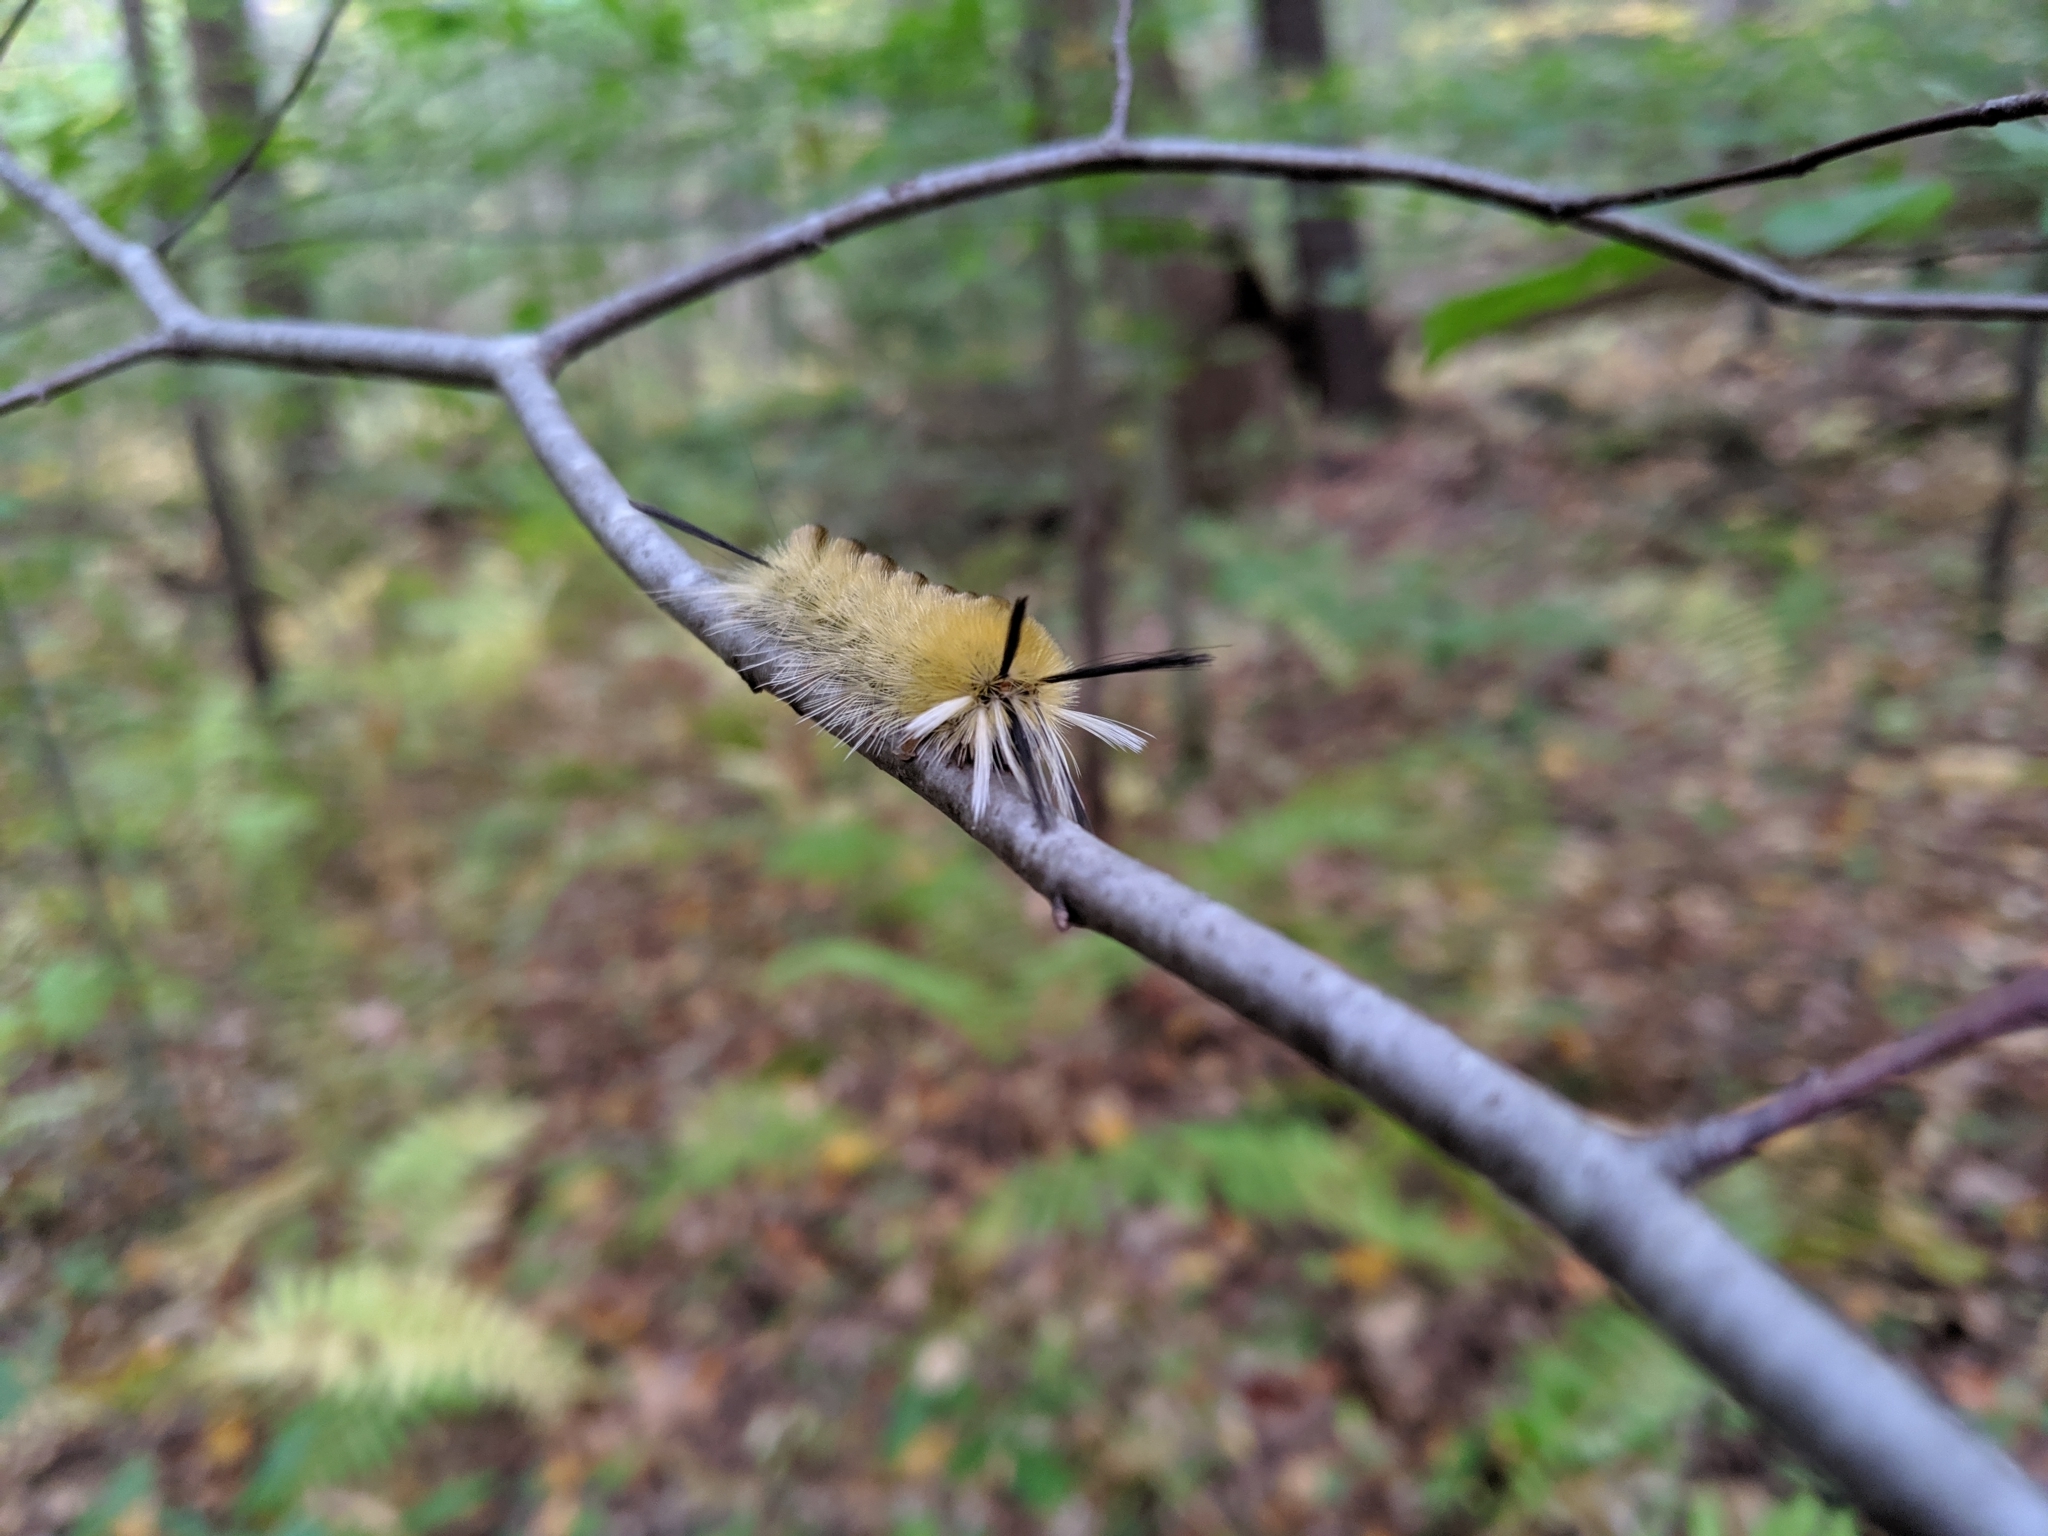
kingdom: Animalia
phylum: Arthropoda
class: Insecta
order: Lepidoptera
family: Erebidae
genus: Halysidota
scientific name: Halysidota tessellaris
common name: Banded tussock moth
